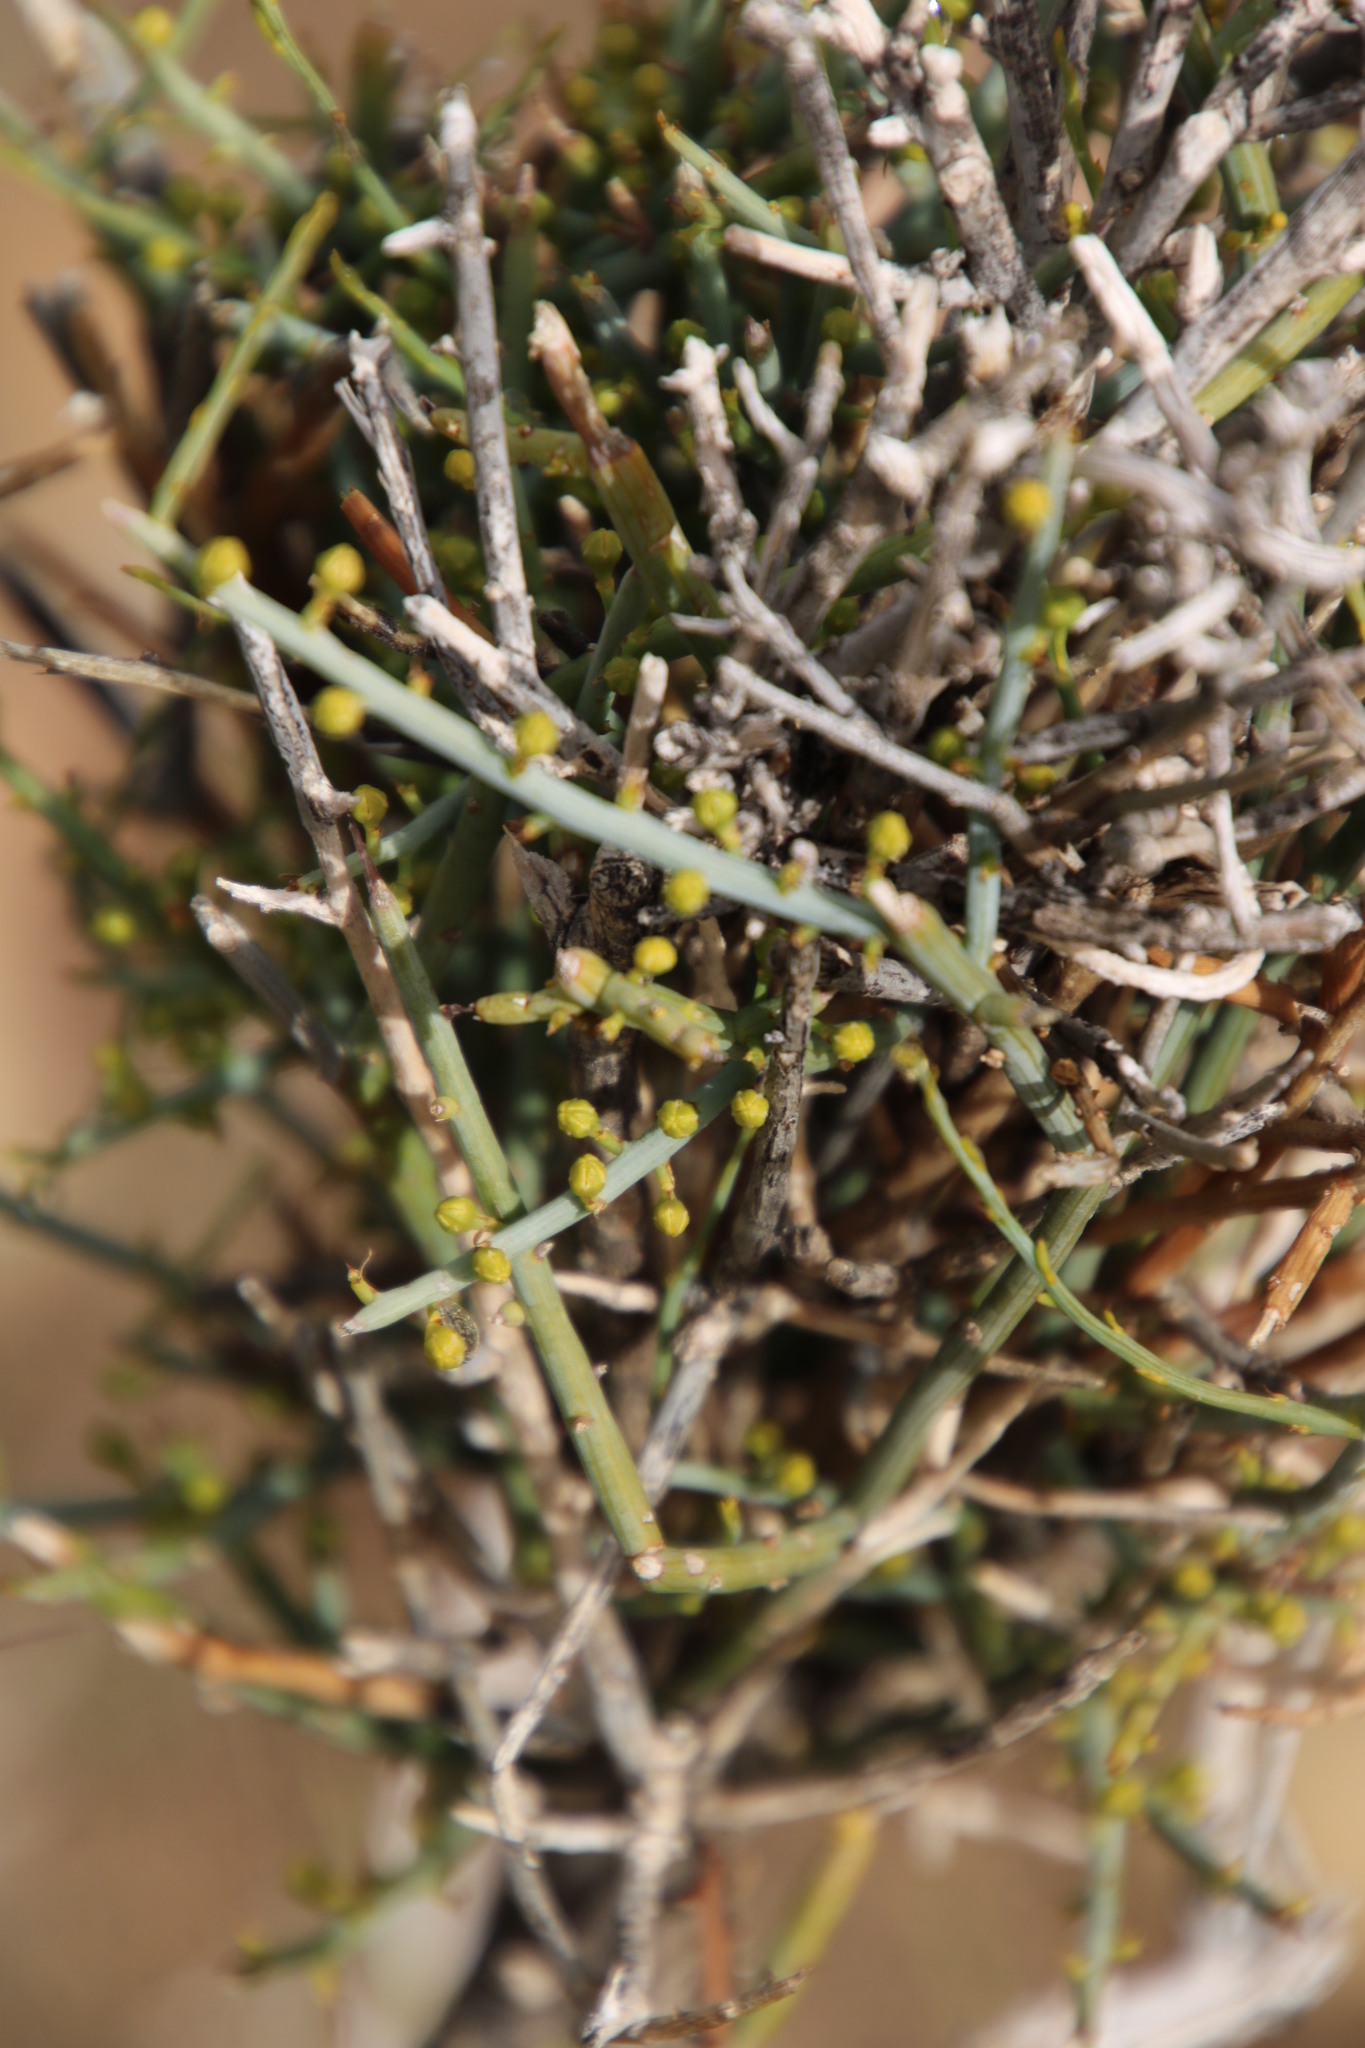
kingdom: Plantae
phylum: Tracheophyta
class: Magnoliopsida
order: Santalales
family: Thesiaceae
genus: Lacomucinaea
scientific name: Lacomucinaea lineata
